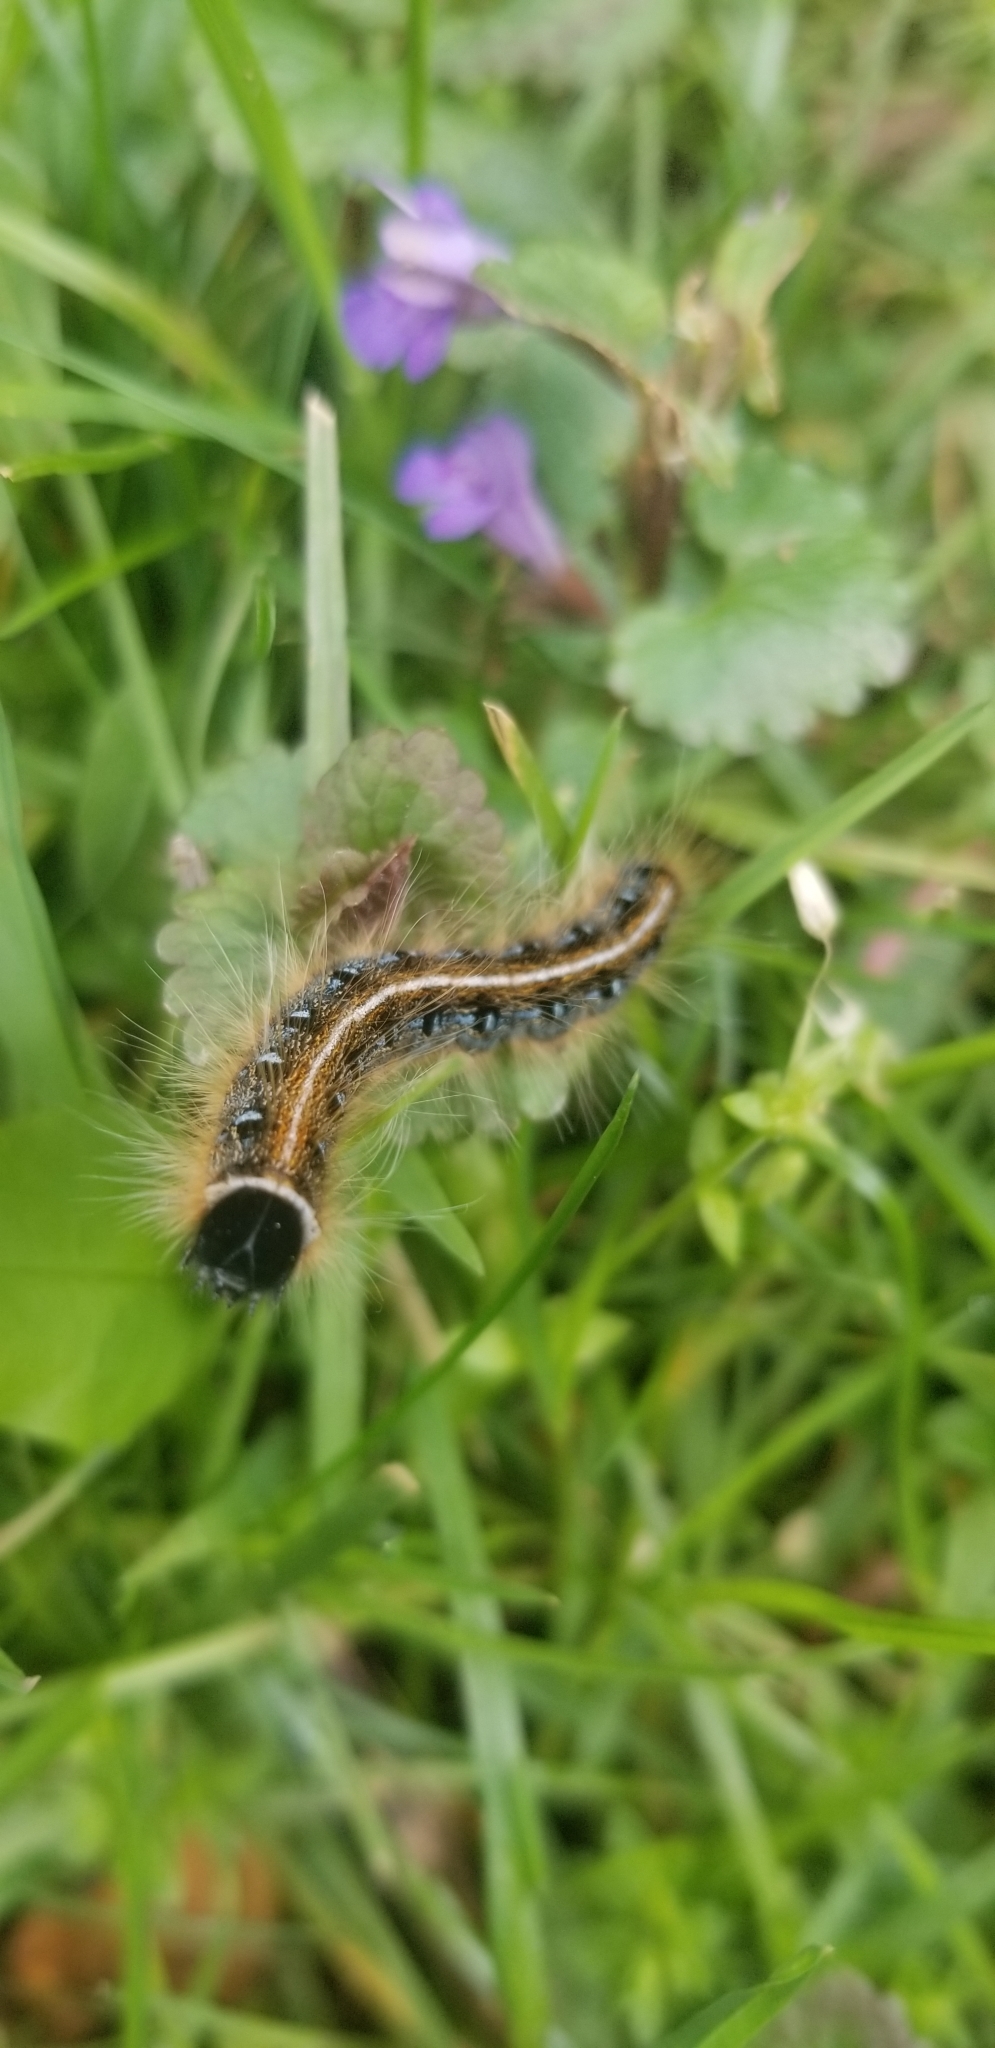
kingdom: Animalia
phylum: Arthropoda
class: Insecta
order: Lepidoptera
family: Lasiocampidae
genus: Malacosoma
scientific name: Malacosoma americana
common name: Eastern tent caterpillar moth
